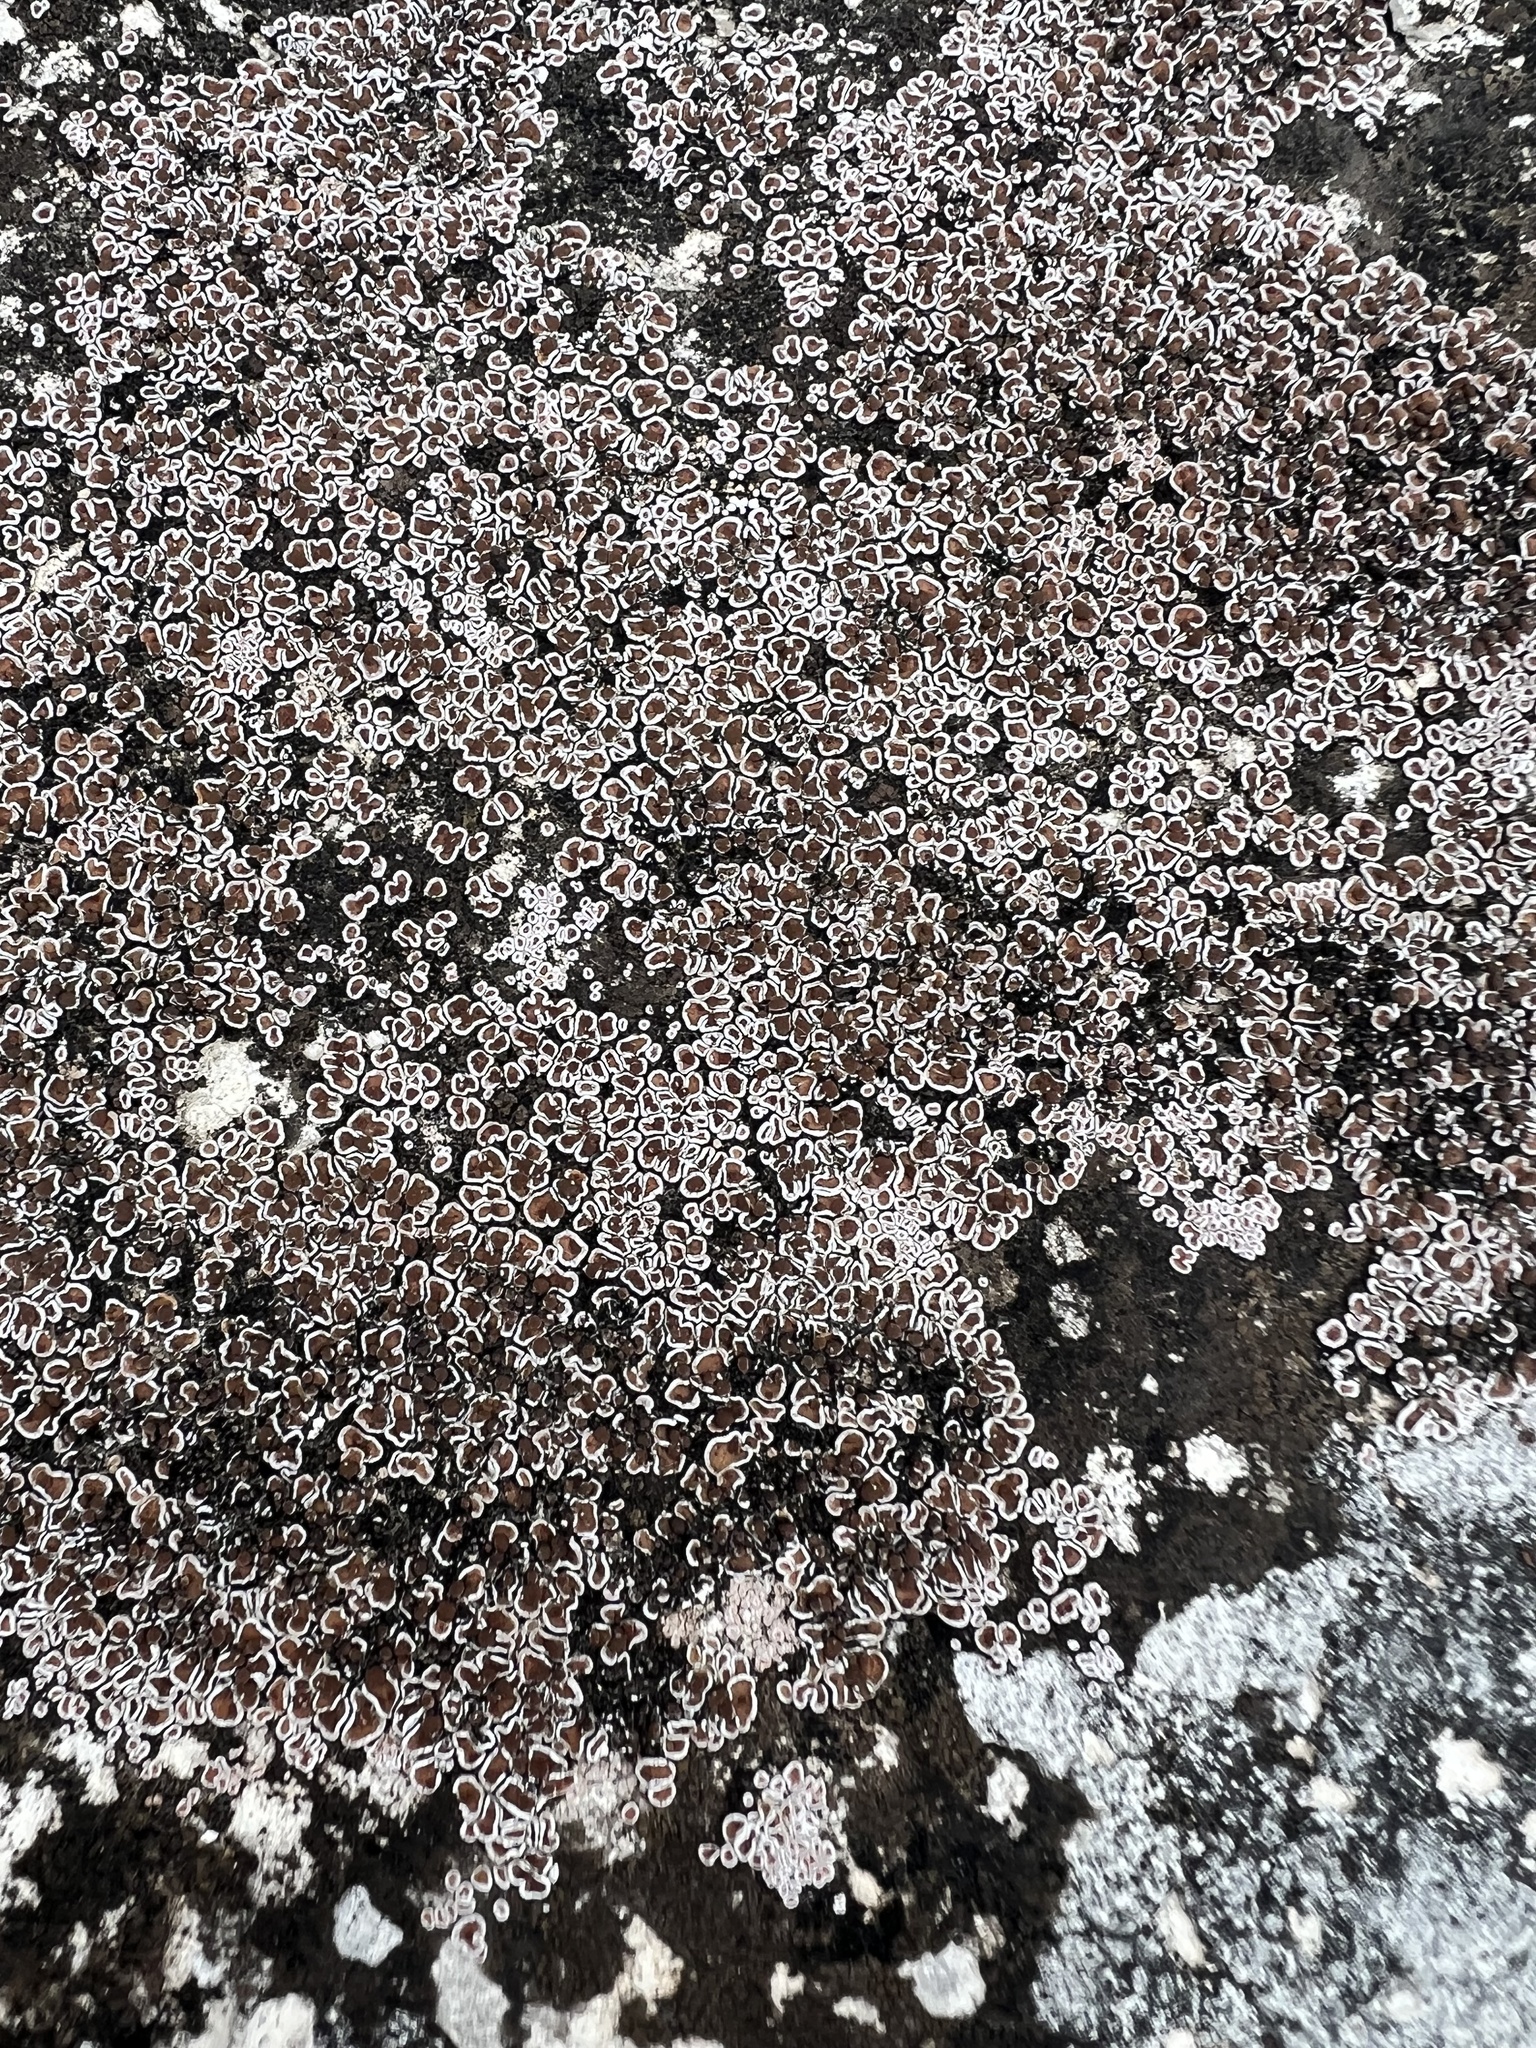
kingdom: Fungi
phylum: Ascomycota
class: Lecanoromycetes
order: Lecanorales
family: Psoraceae
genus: Psora
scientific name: Psora pseudorussellii
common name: Bordered scale lichen
